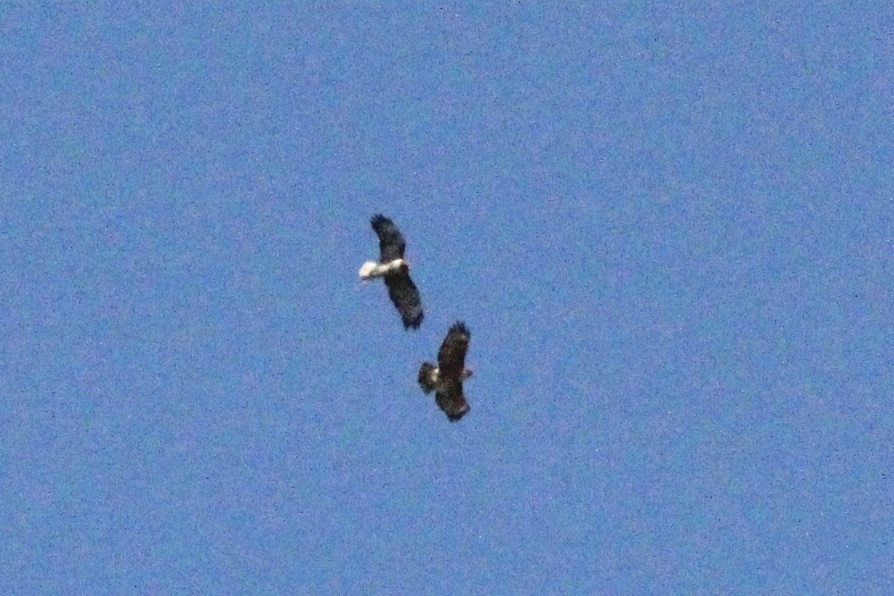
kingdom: Animalia
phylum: Chordata
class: Aves
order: Accipitriformes
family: Accipitridae
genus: Buteo
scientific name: Buteo jamaicensis
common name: Red-tailed hawk
